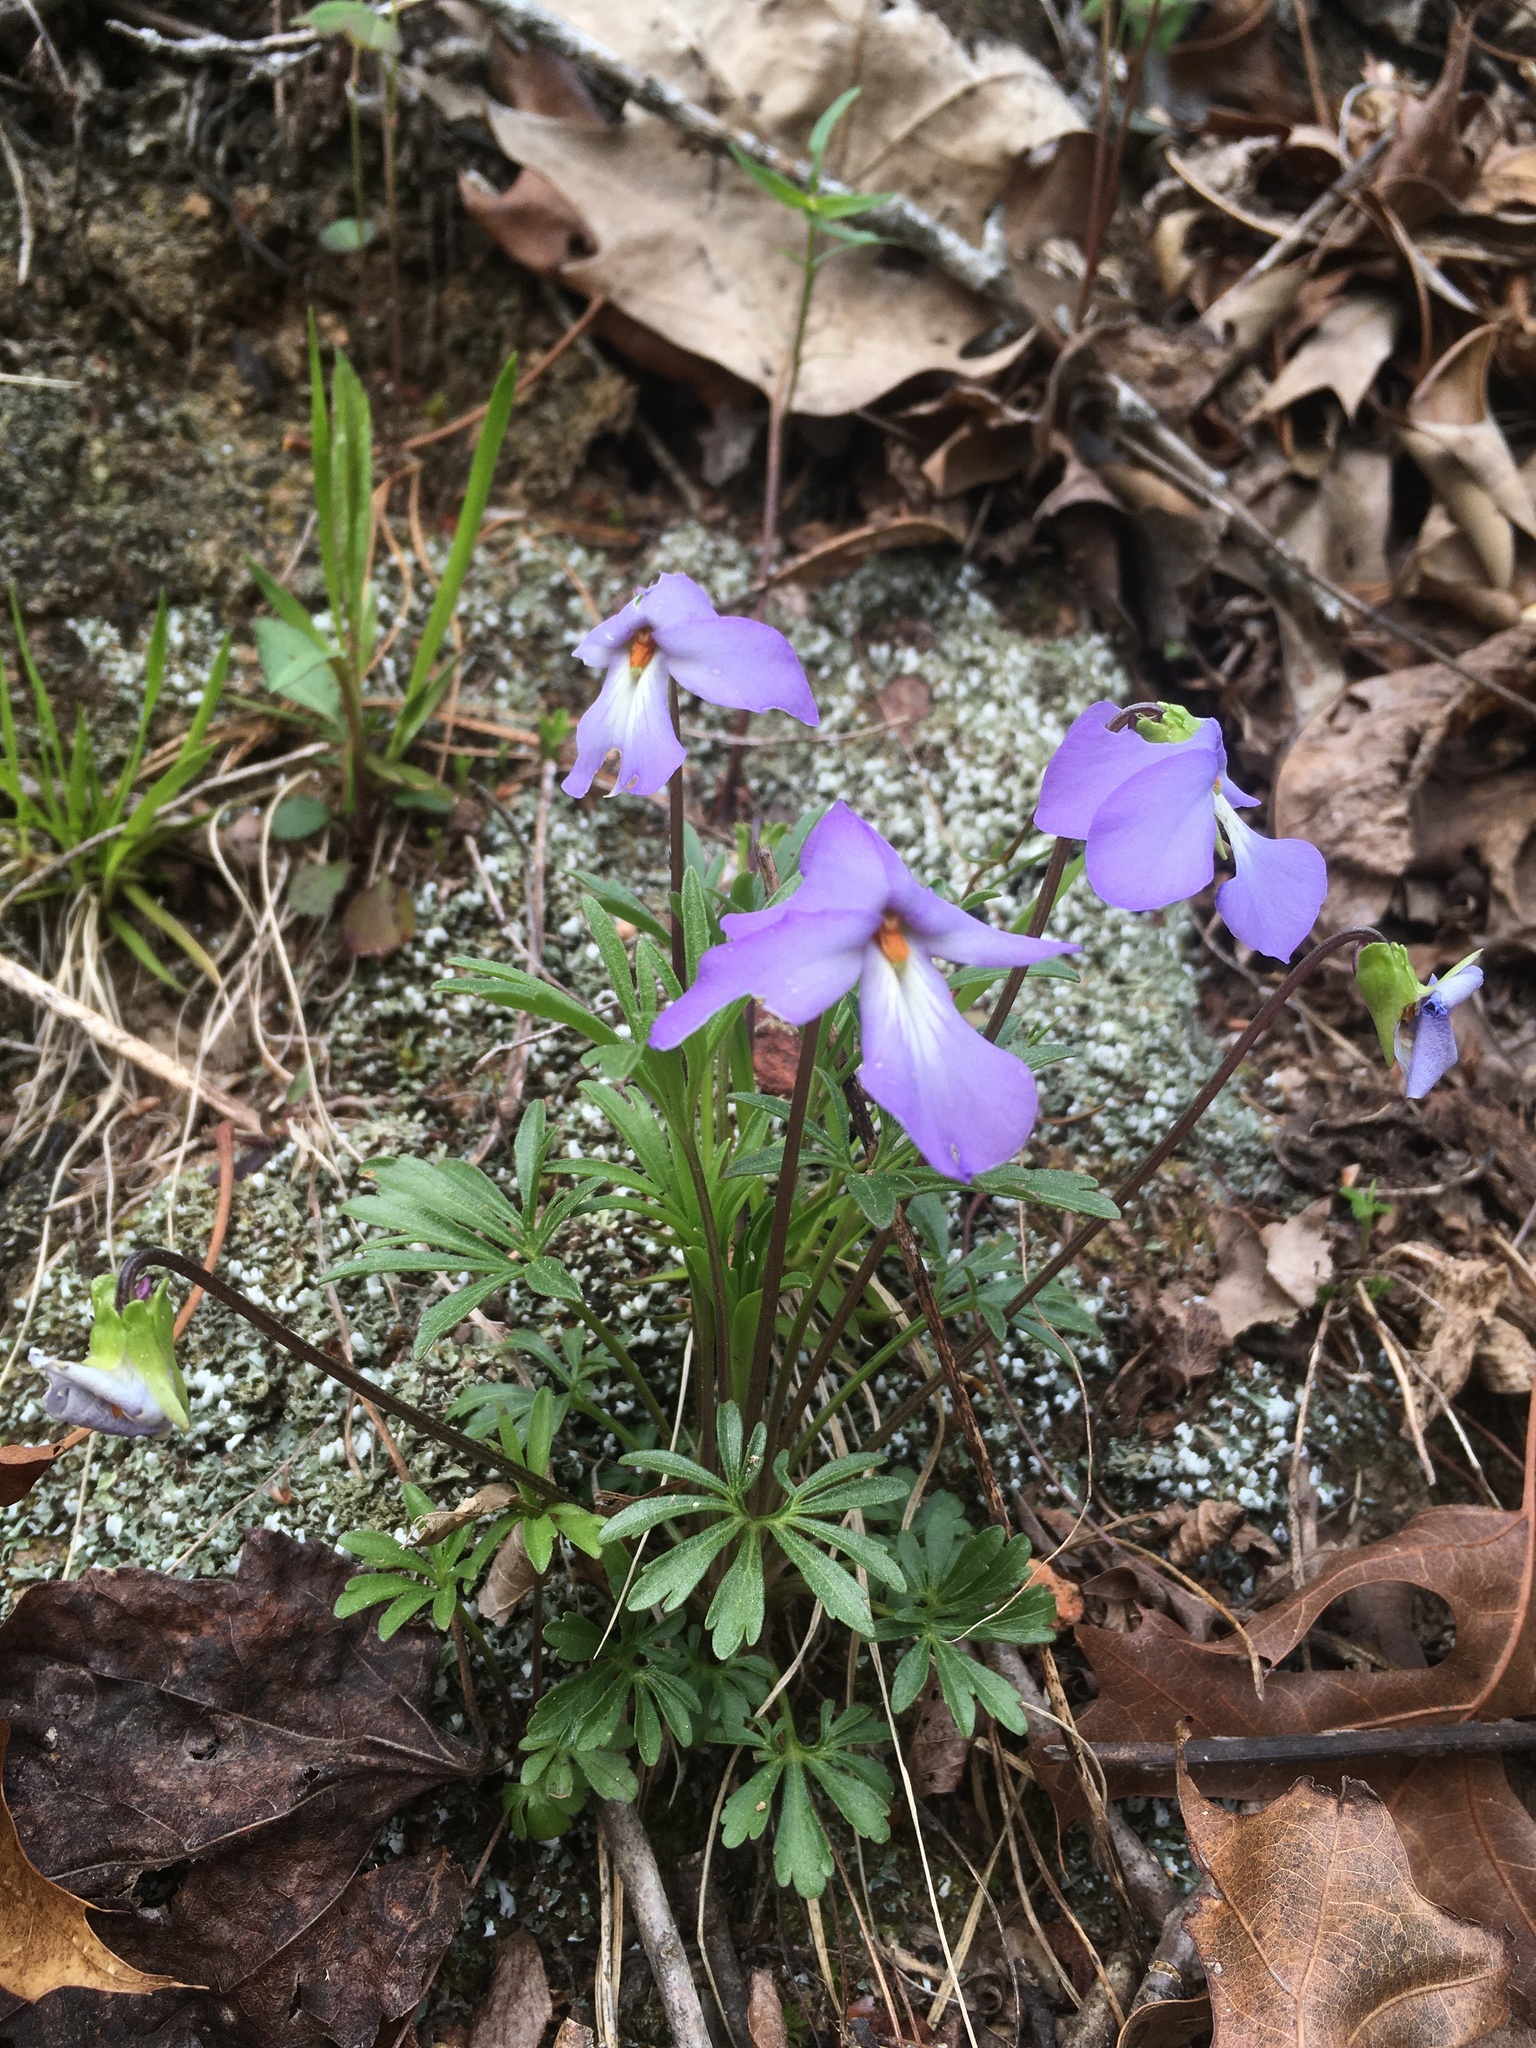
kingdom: Plantae
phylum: Tracheophyta
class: Magnoliopsida
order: Malpighiales
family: Violaceae
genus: Viola
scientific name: Viola pedata
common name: Pansy violet
